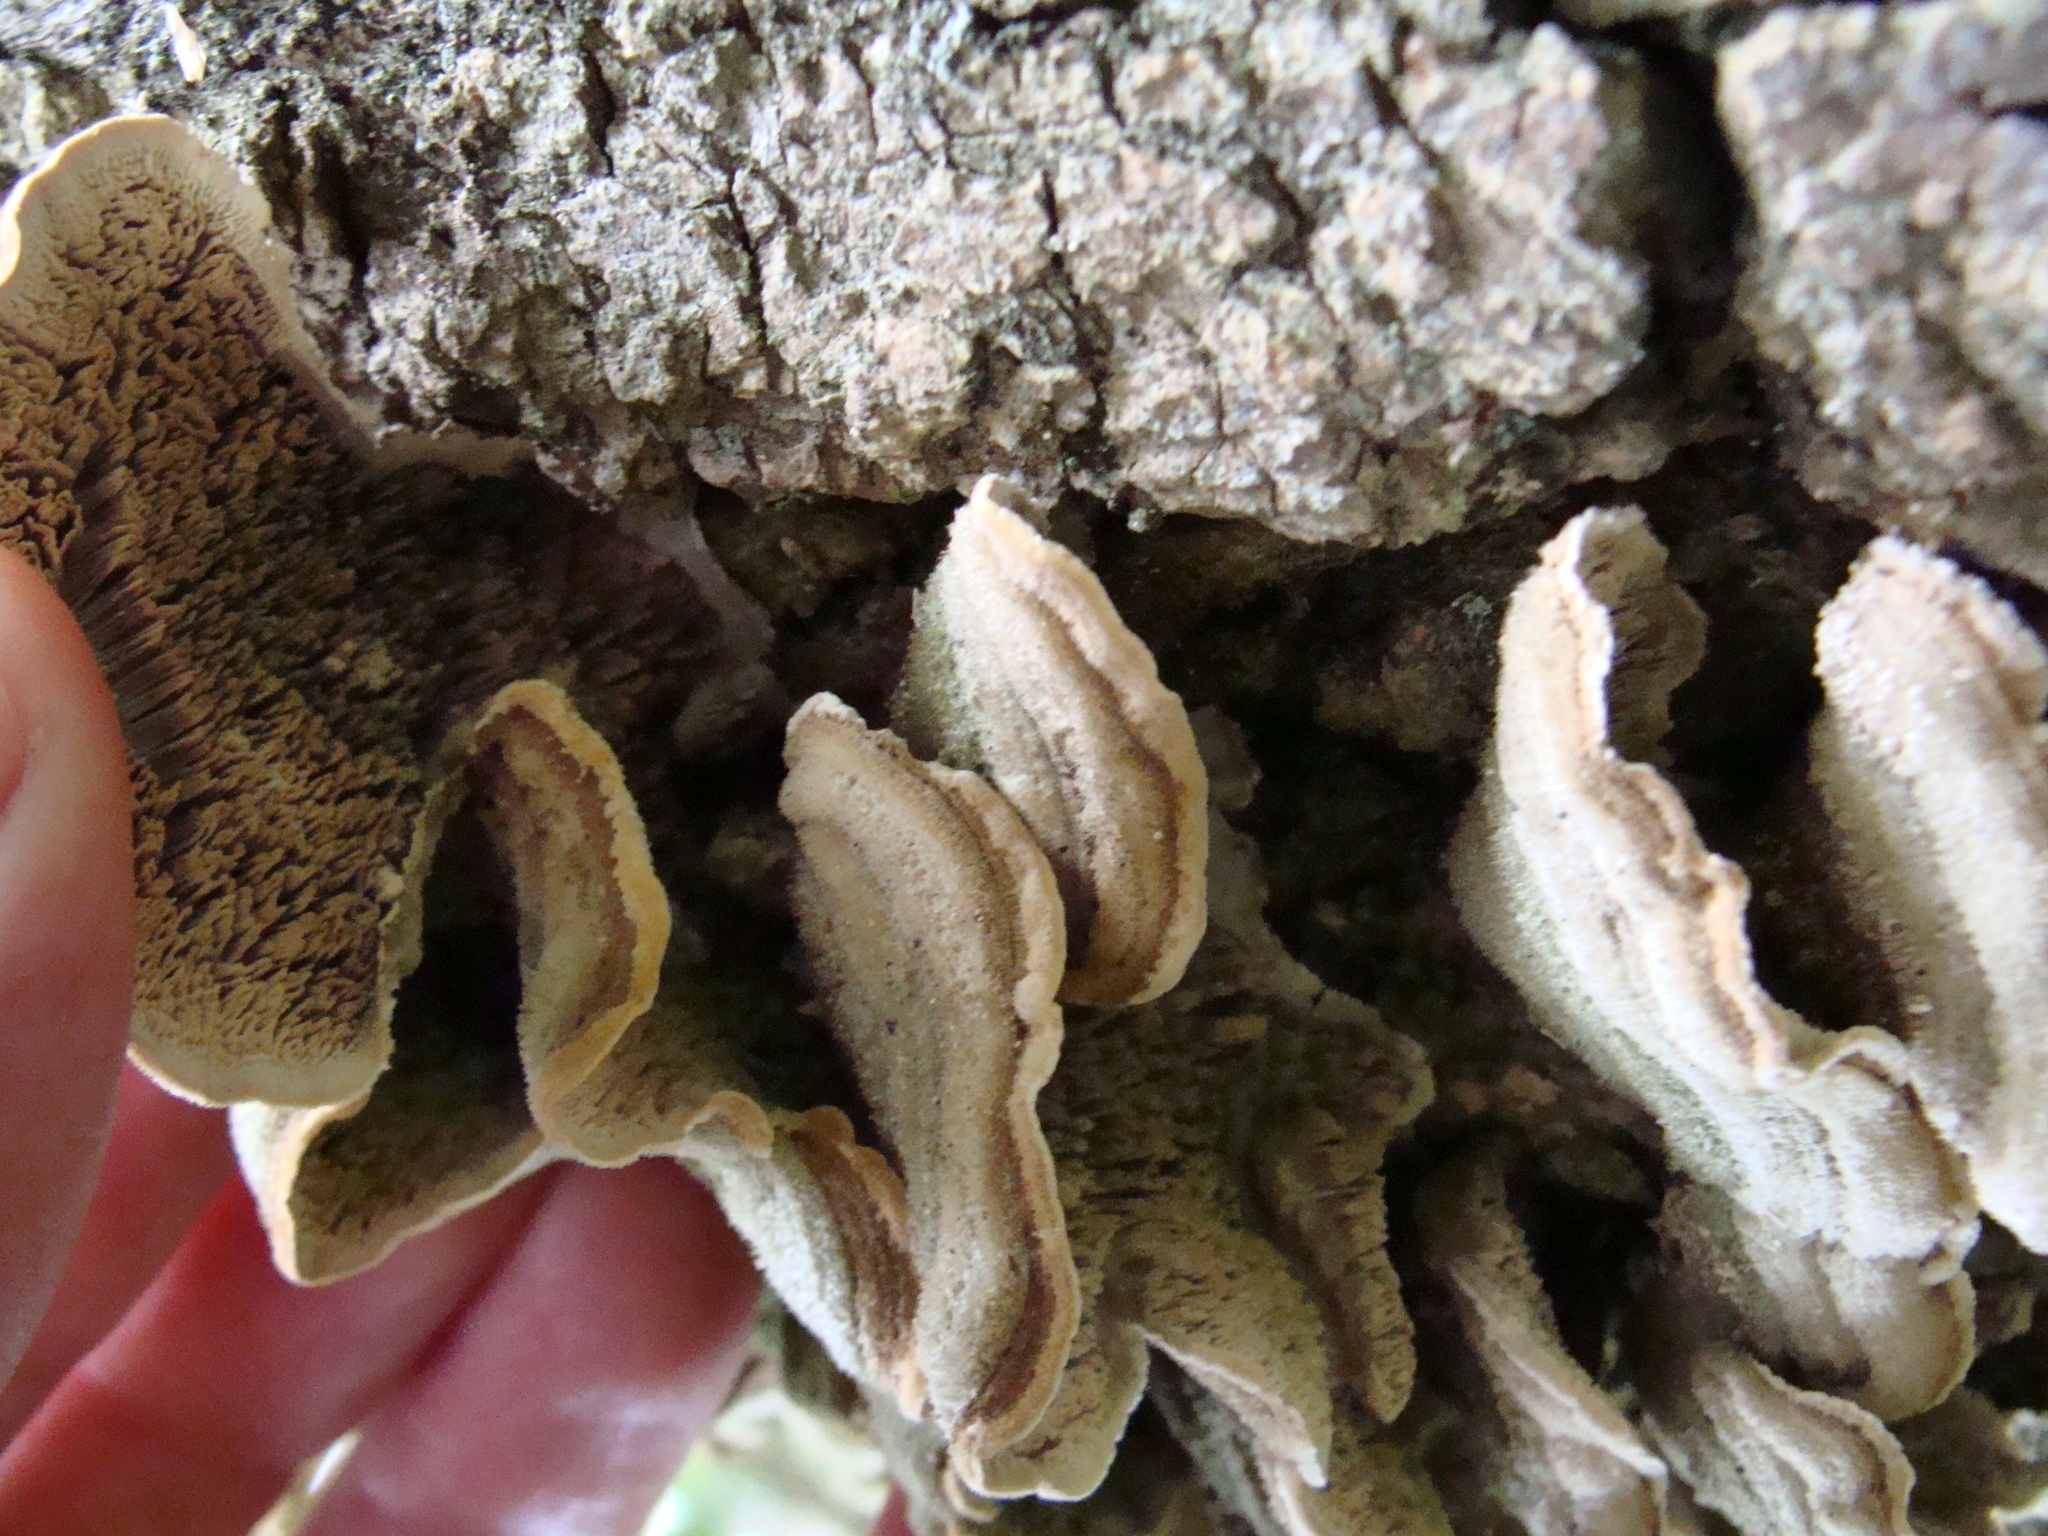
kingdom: Fungi
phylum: Basidiomycota
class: Agaricomycetes
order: Polyporales
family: Cerrenaceae
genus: Cerrena
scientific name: Cerrena unicolor
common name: Mossy maze polypore
